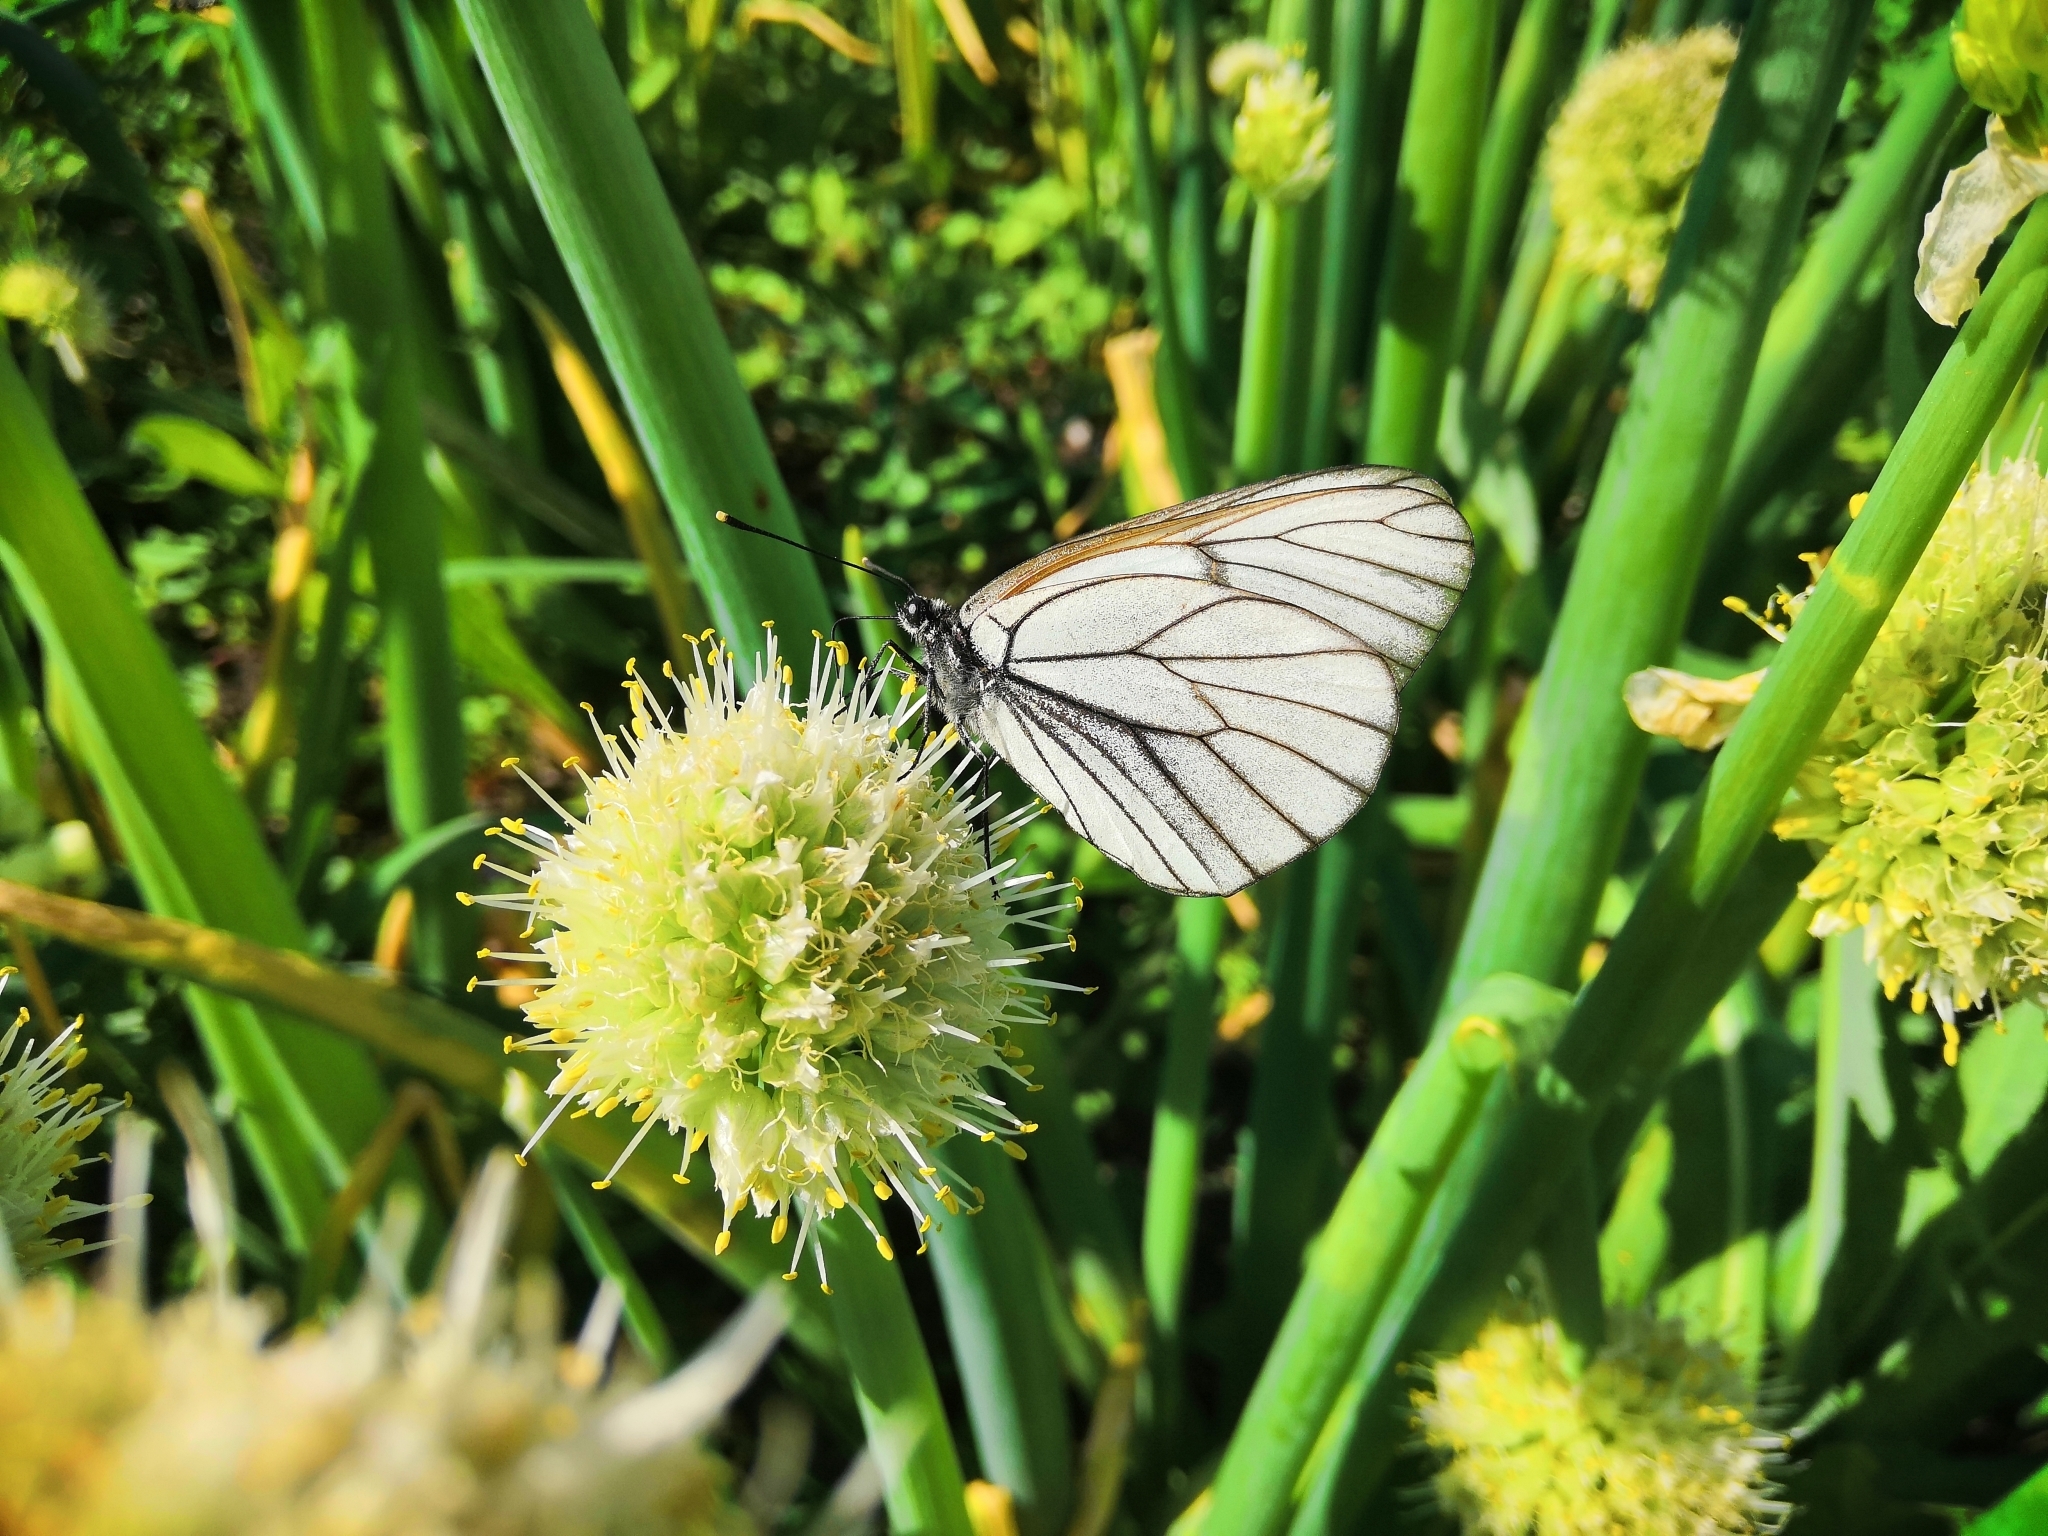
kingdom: Animalia
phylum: Arthropoda
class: Insecta
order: Lepidoptera
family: Pieridae
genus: Aporia
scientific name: Aporia crataegi
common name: Black-veined white
